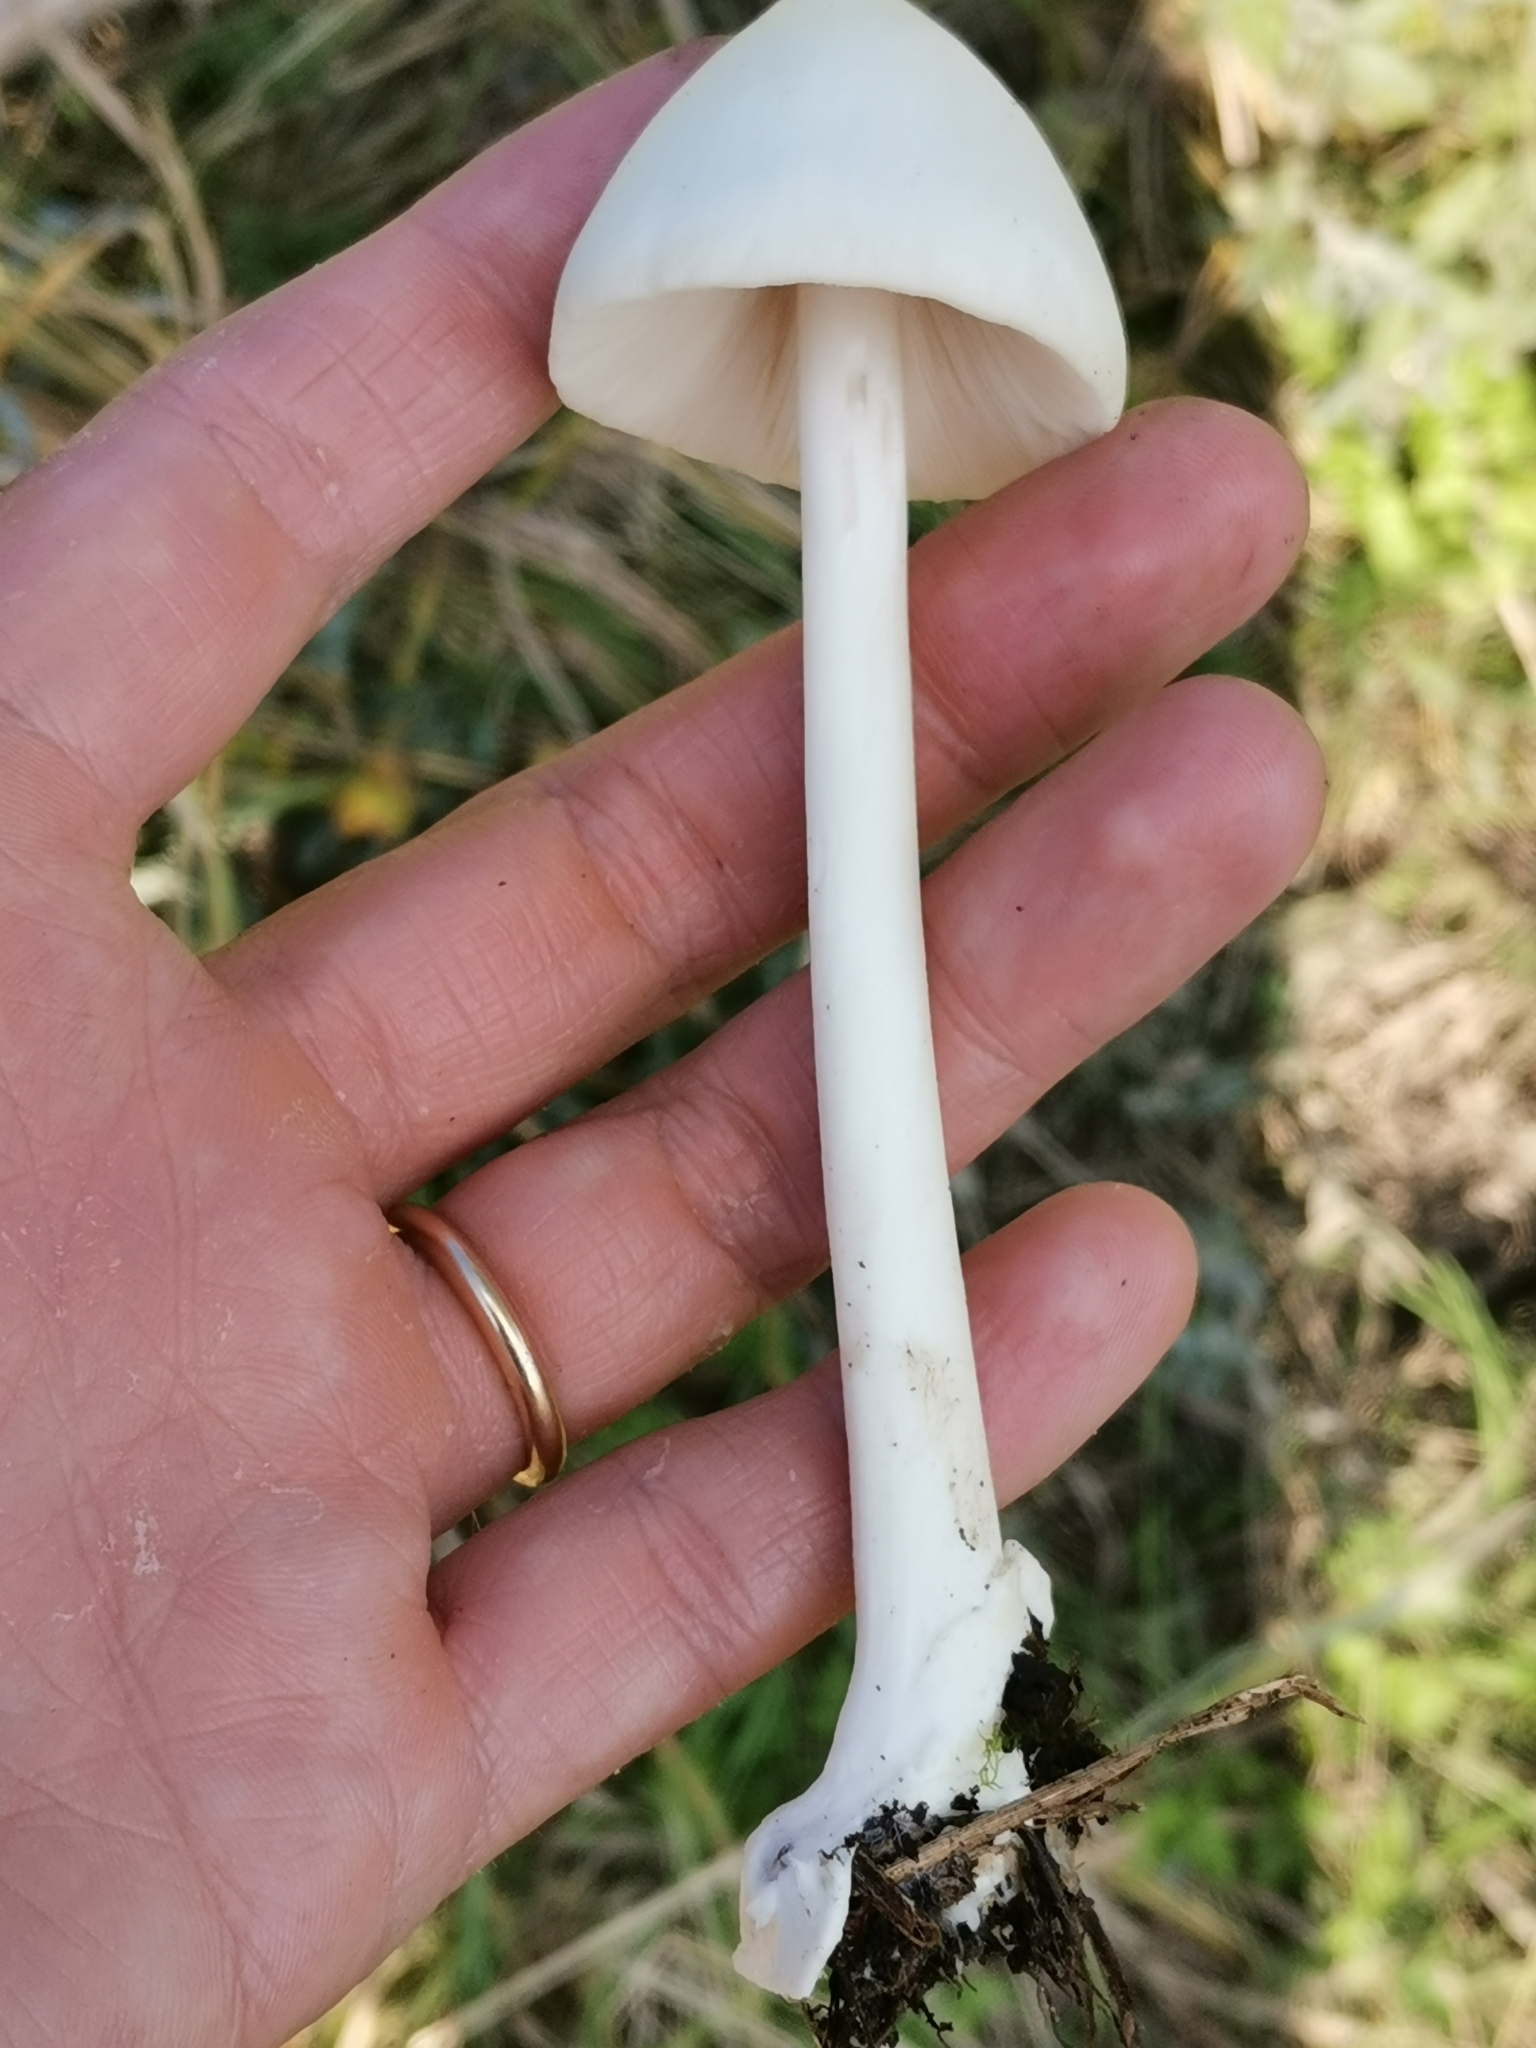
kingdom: Fungi
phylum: Basidiomycota
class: Agaricomycetes
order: Agaricales
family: Pluteaceae
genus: Volvopluteus
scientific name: Volvopluteus gloiocephalus
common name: Stubble rosegill
